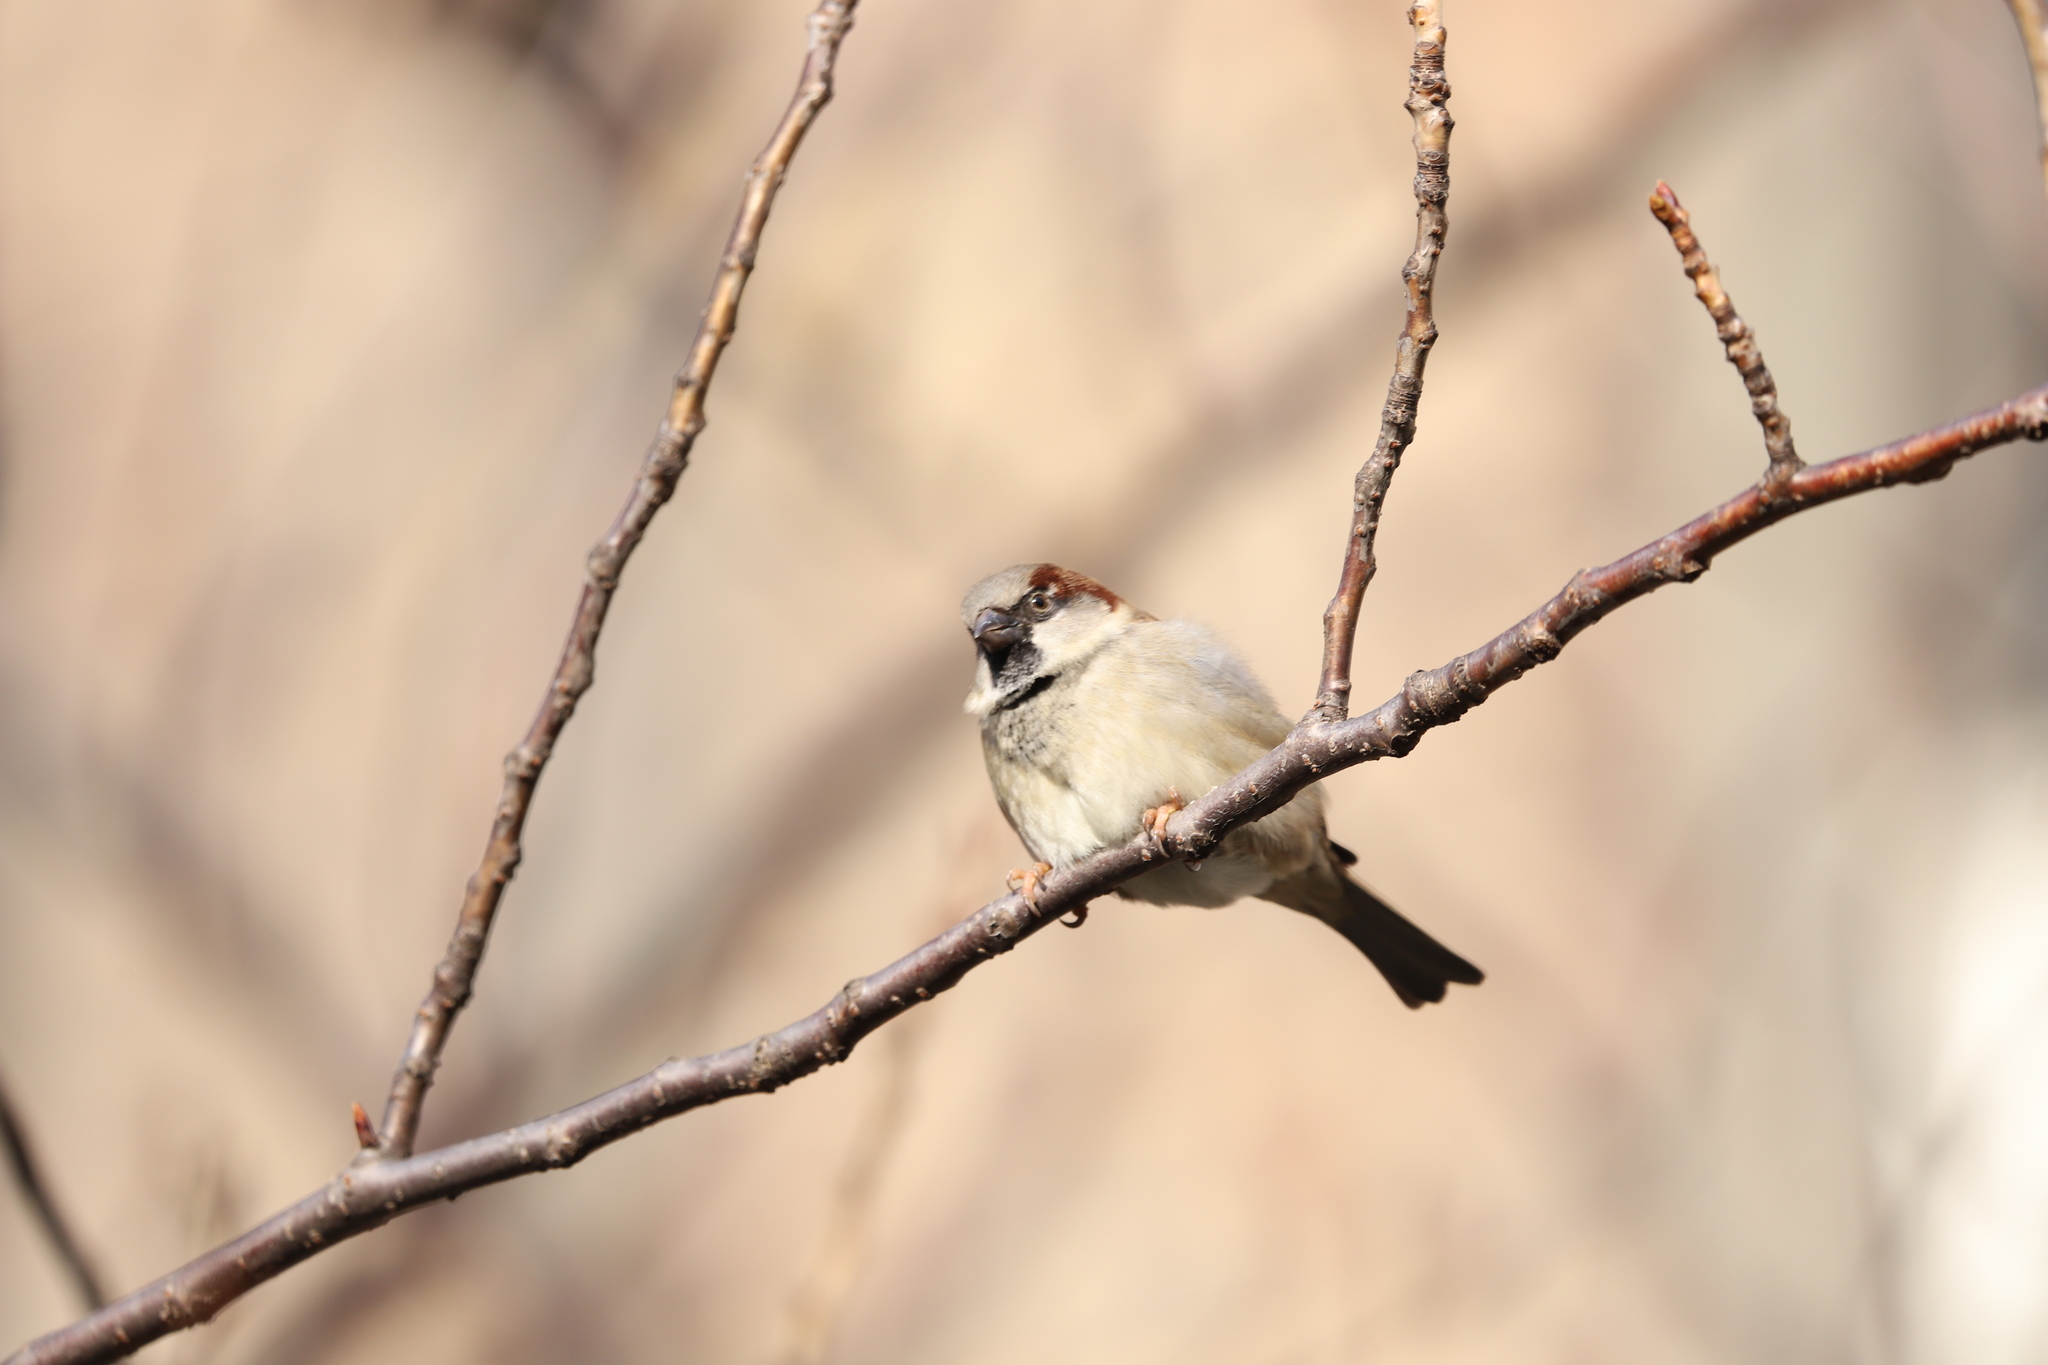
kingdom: Animalia
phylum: Chordata
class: Aves
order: Passeriformes
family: Passeridae
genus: Passer
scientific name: Passer domesticus
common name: House sparrow
